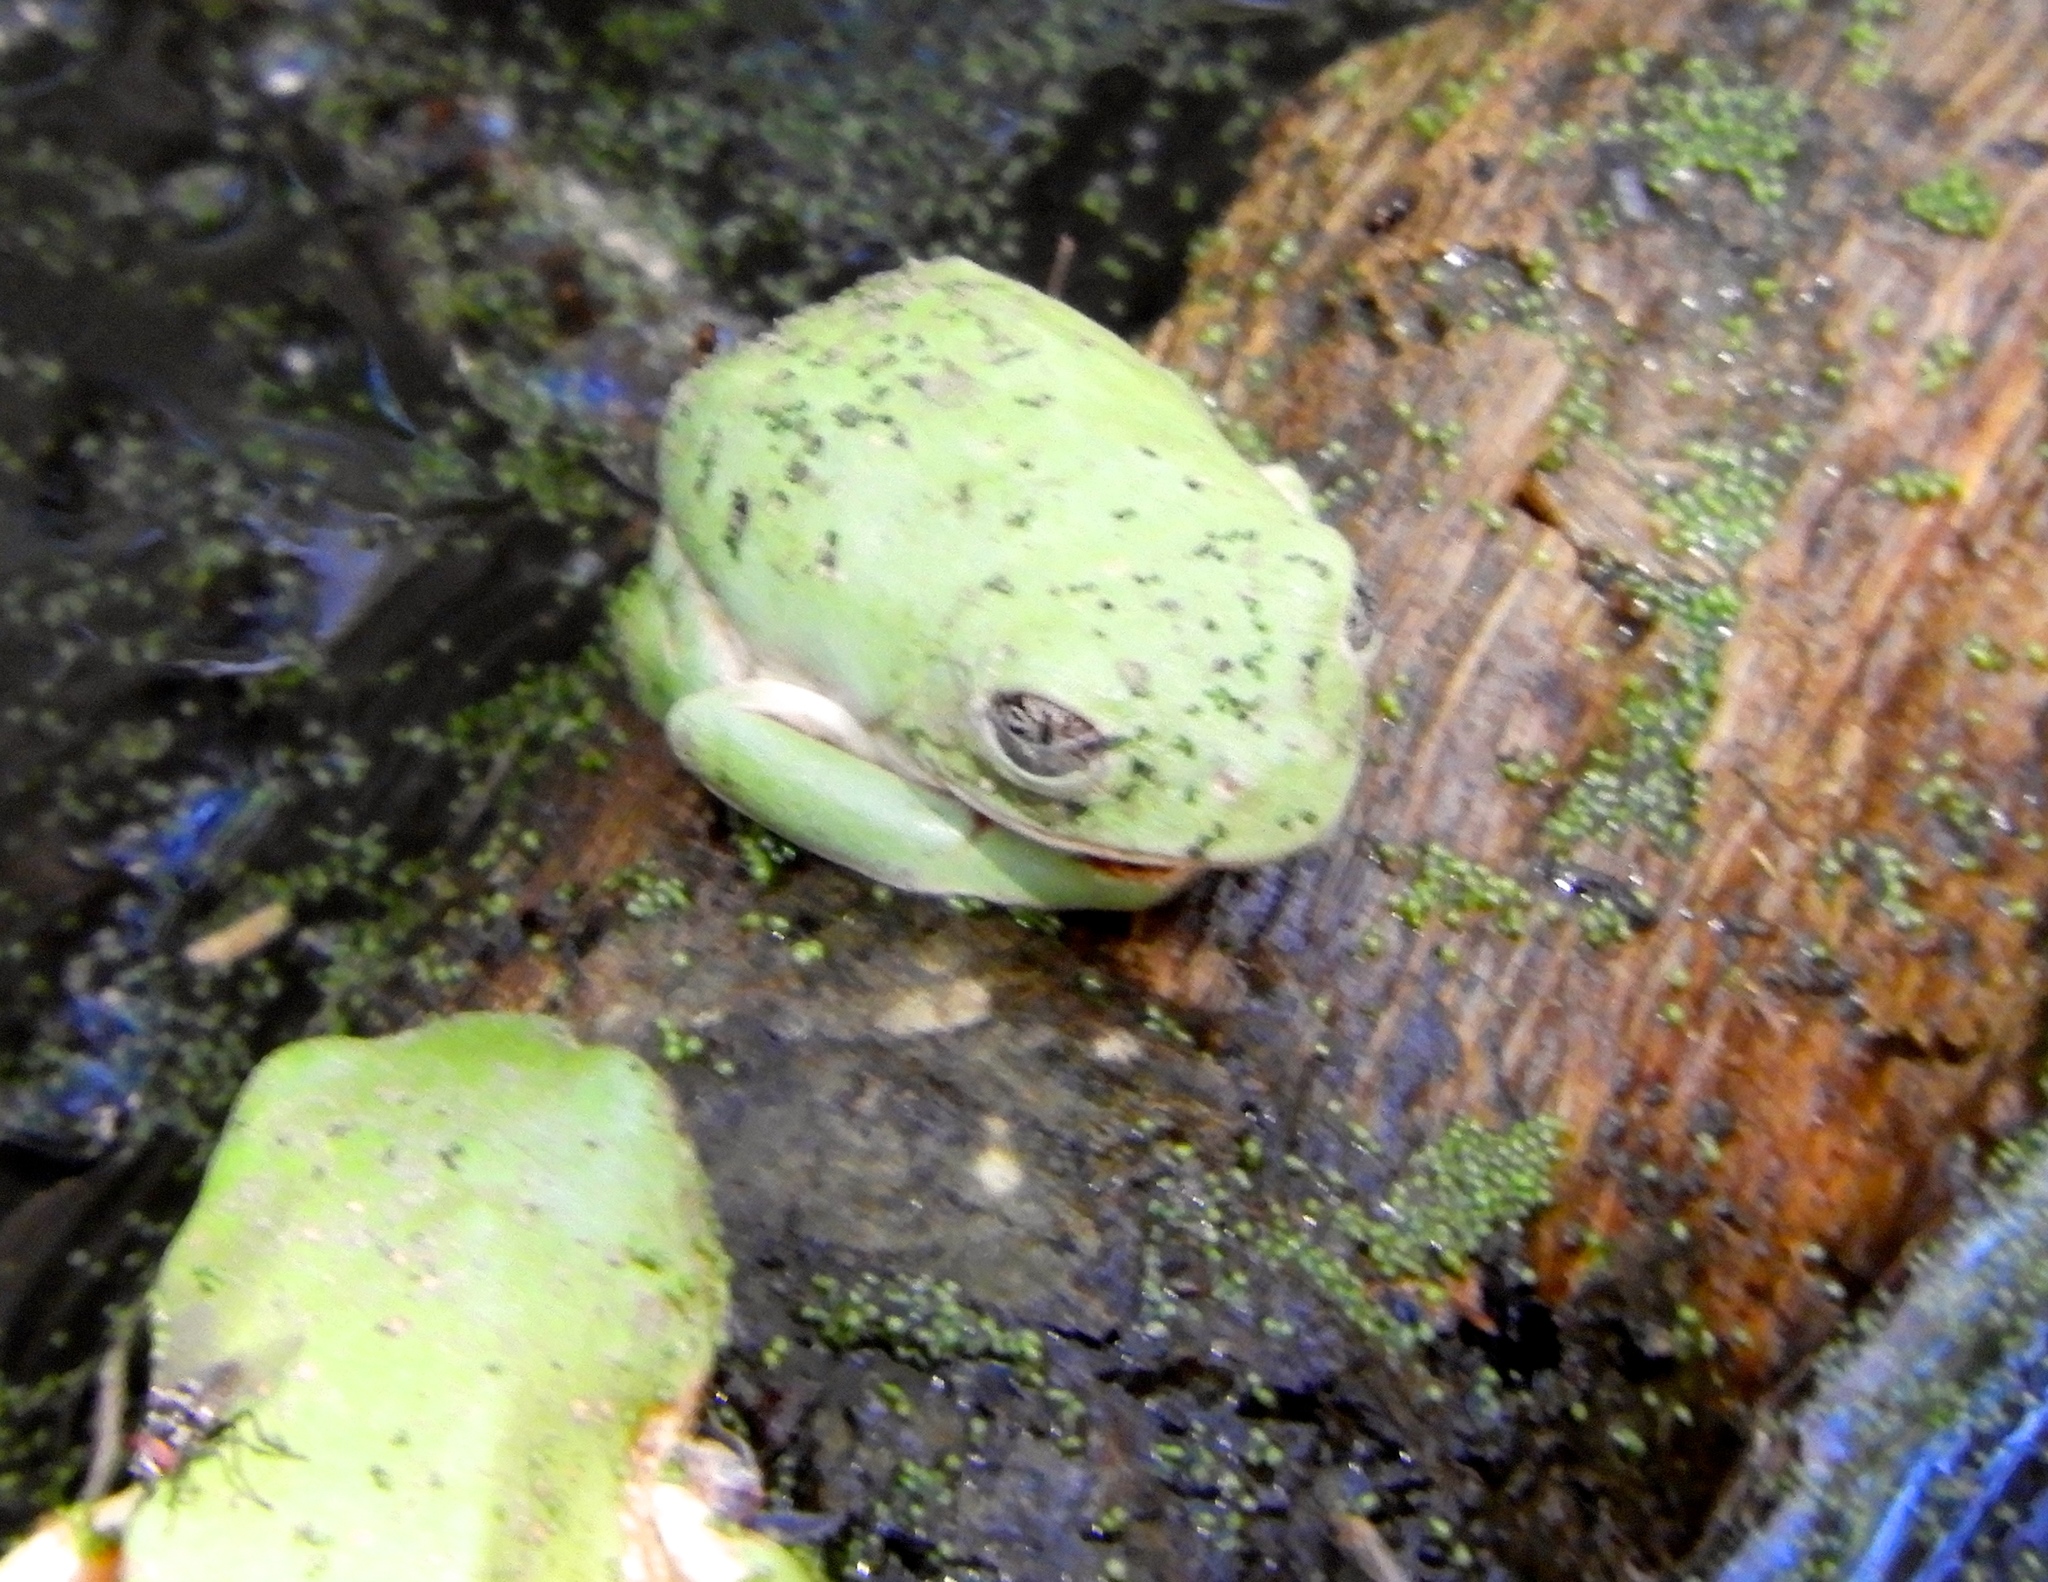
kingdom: Animalia
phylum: Chordata
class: Amphibia
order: Anura
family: Phyllomedusidae
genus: Agalychnis
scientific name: Agalychnis dacnicolor
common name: Mexican giant tree frog
